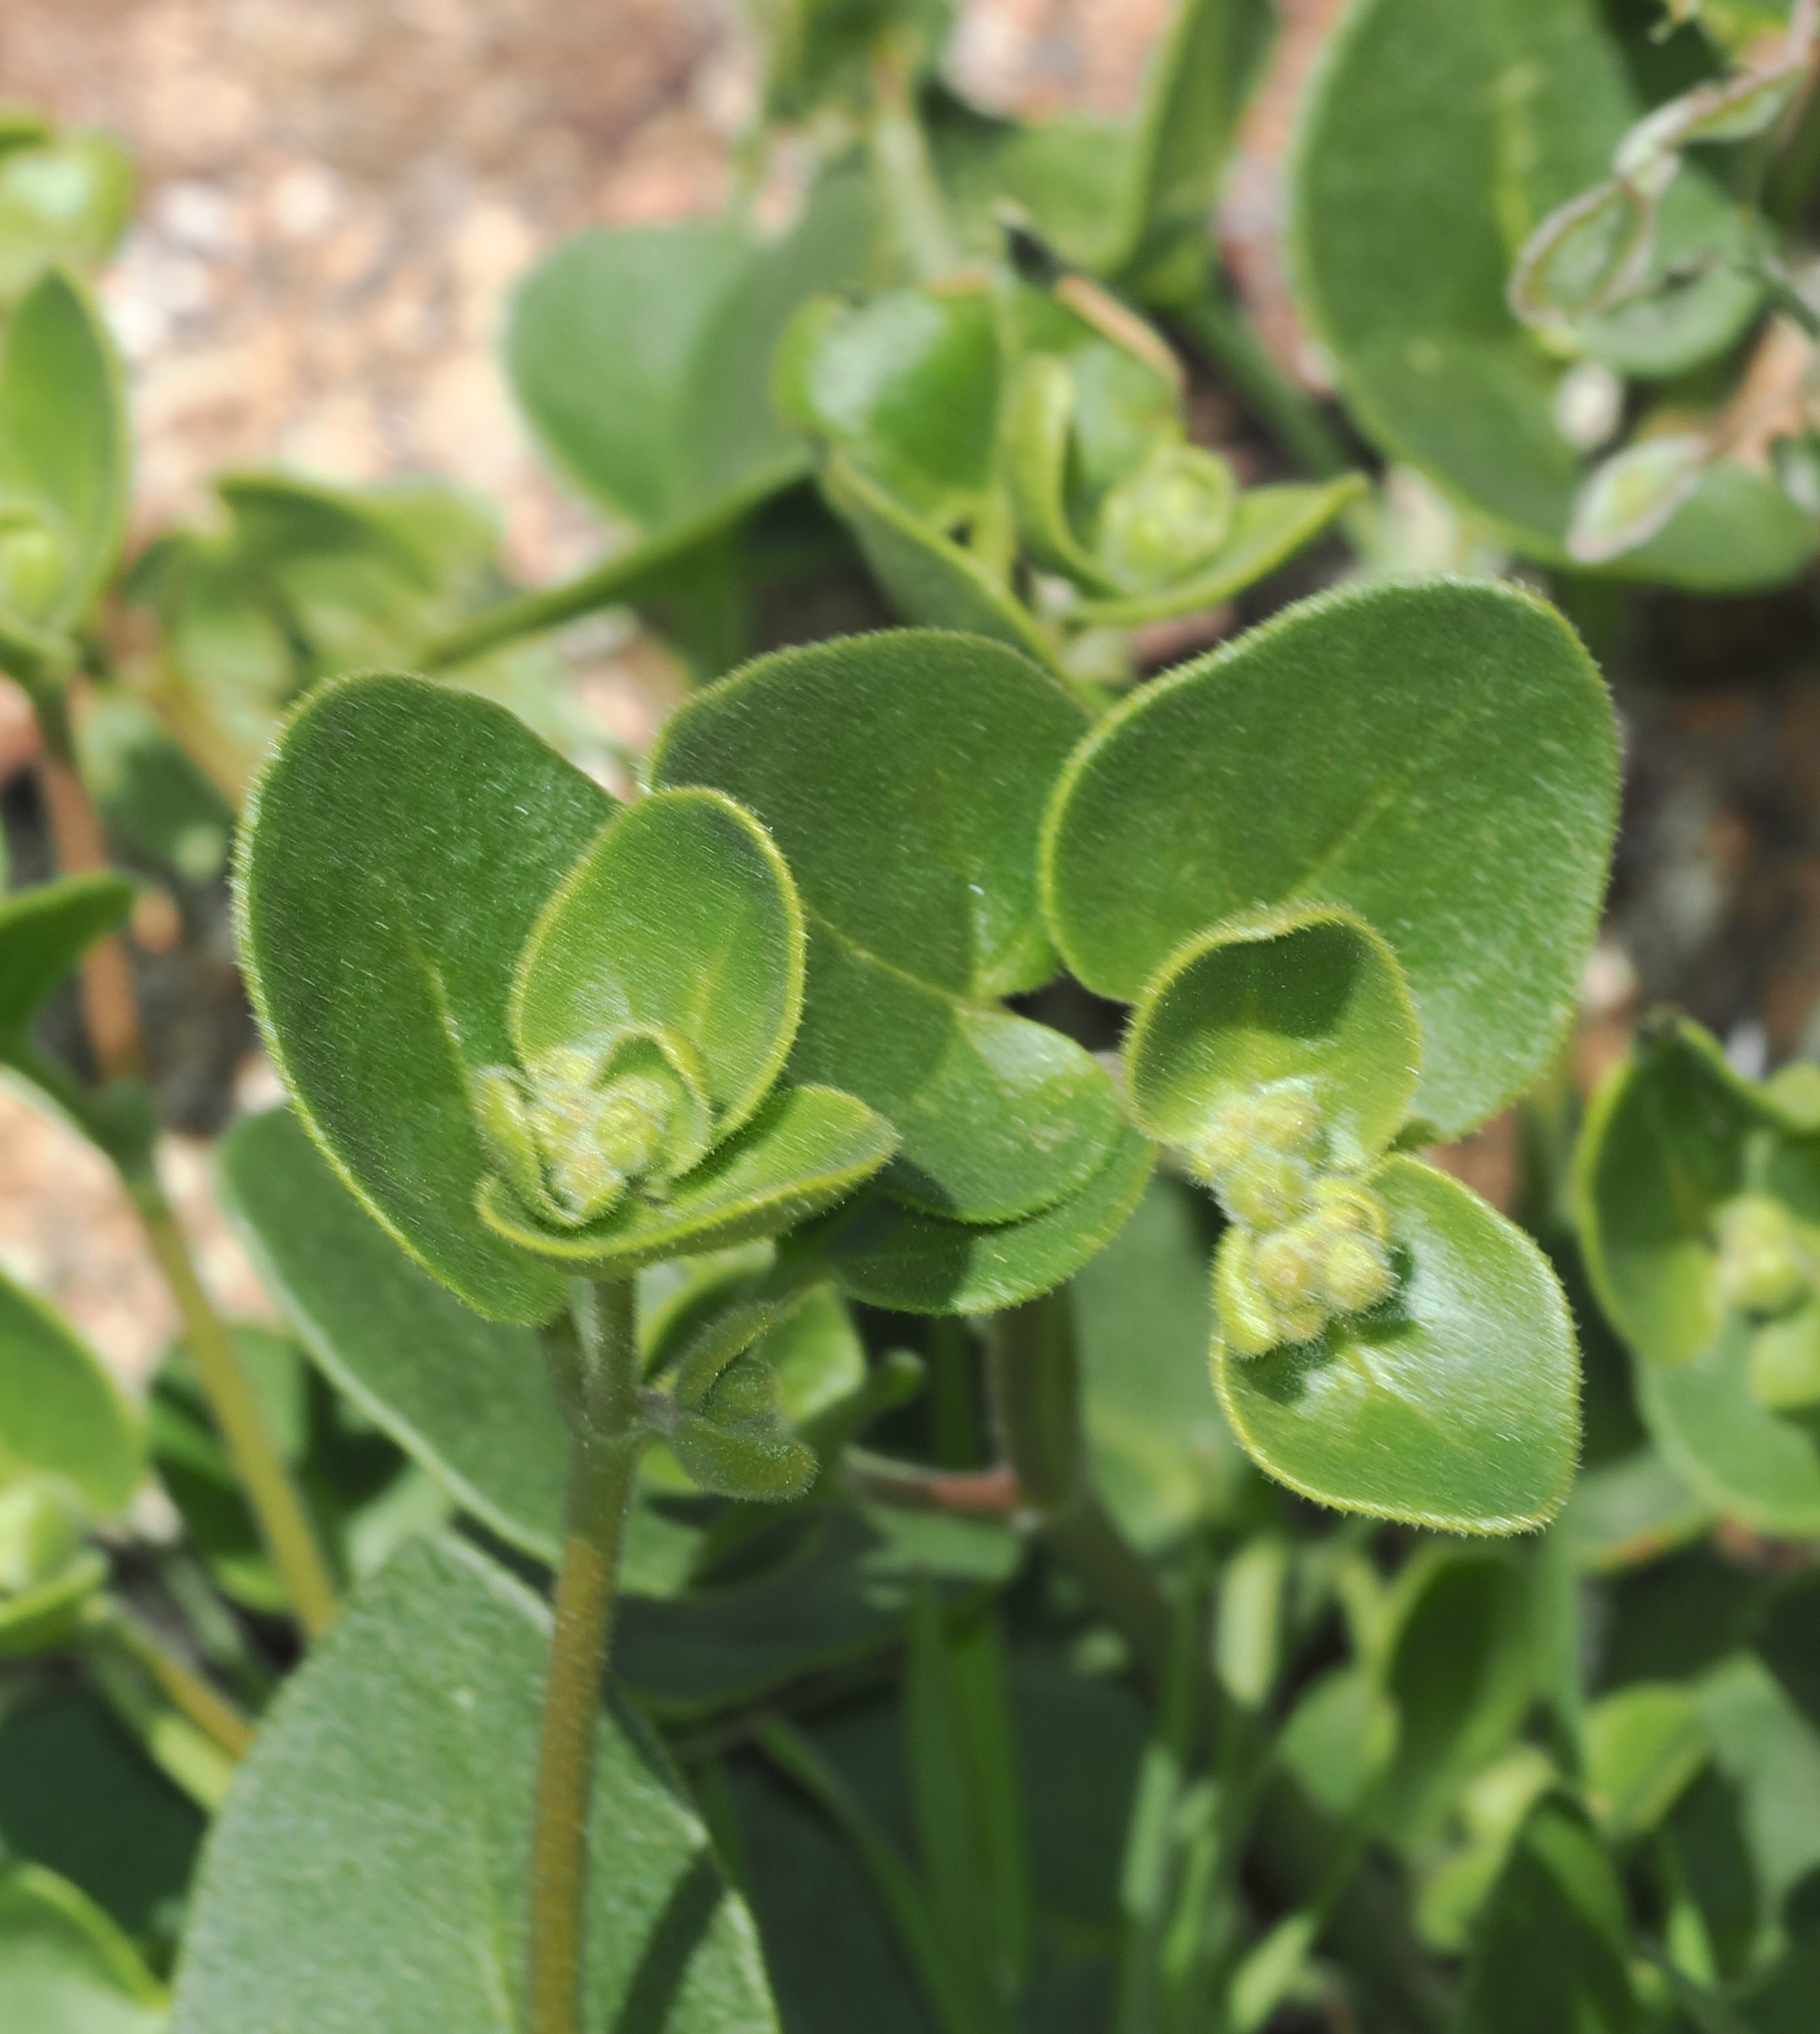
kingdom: Plantae
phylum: Tracheophyta
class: Magnoliopsida
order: Caryophyllales
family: Nyctaginaceae
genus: Mirabilis
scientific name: Mirabilis laevis
